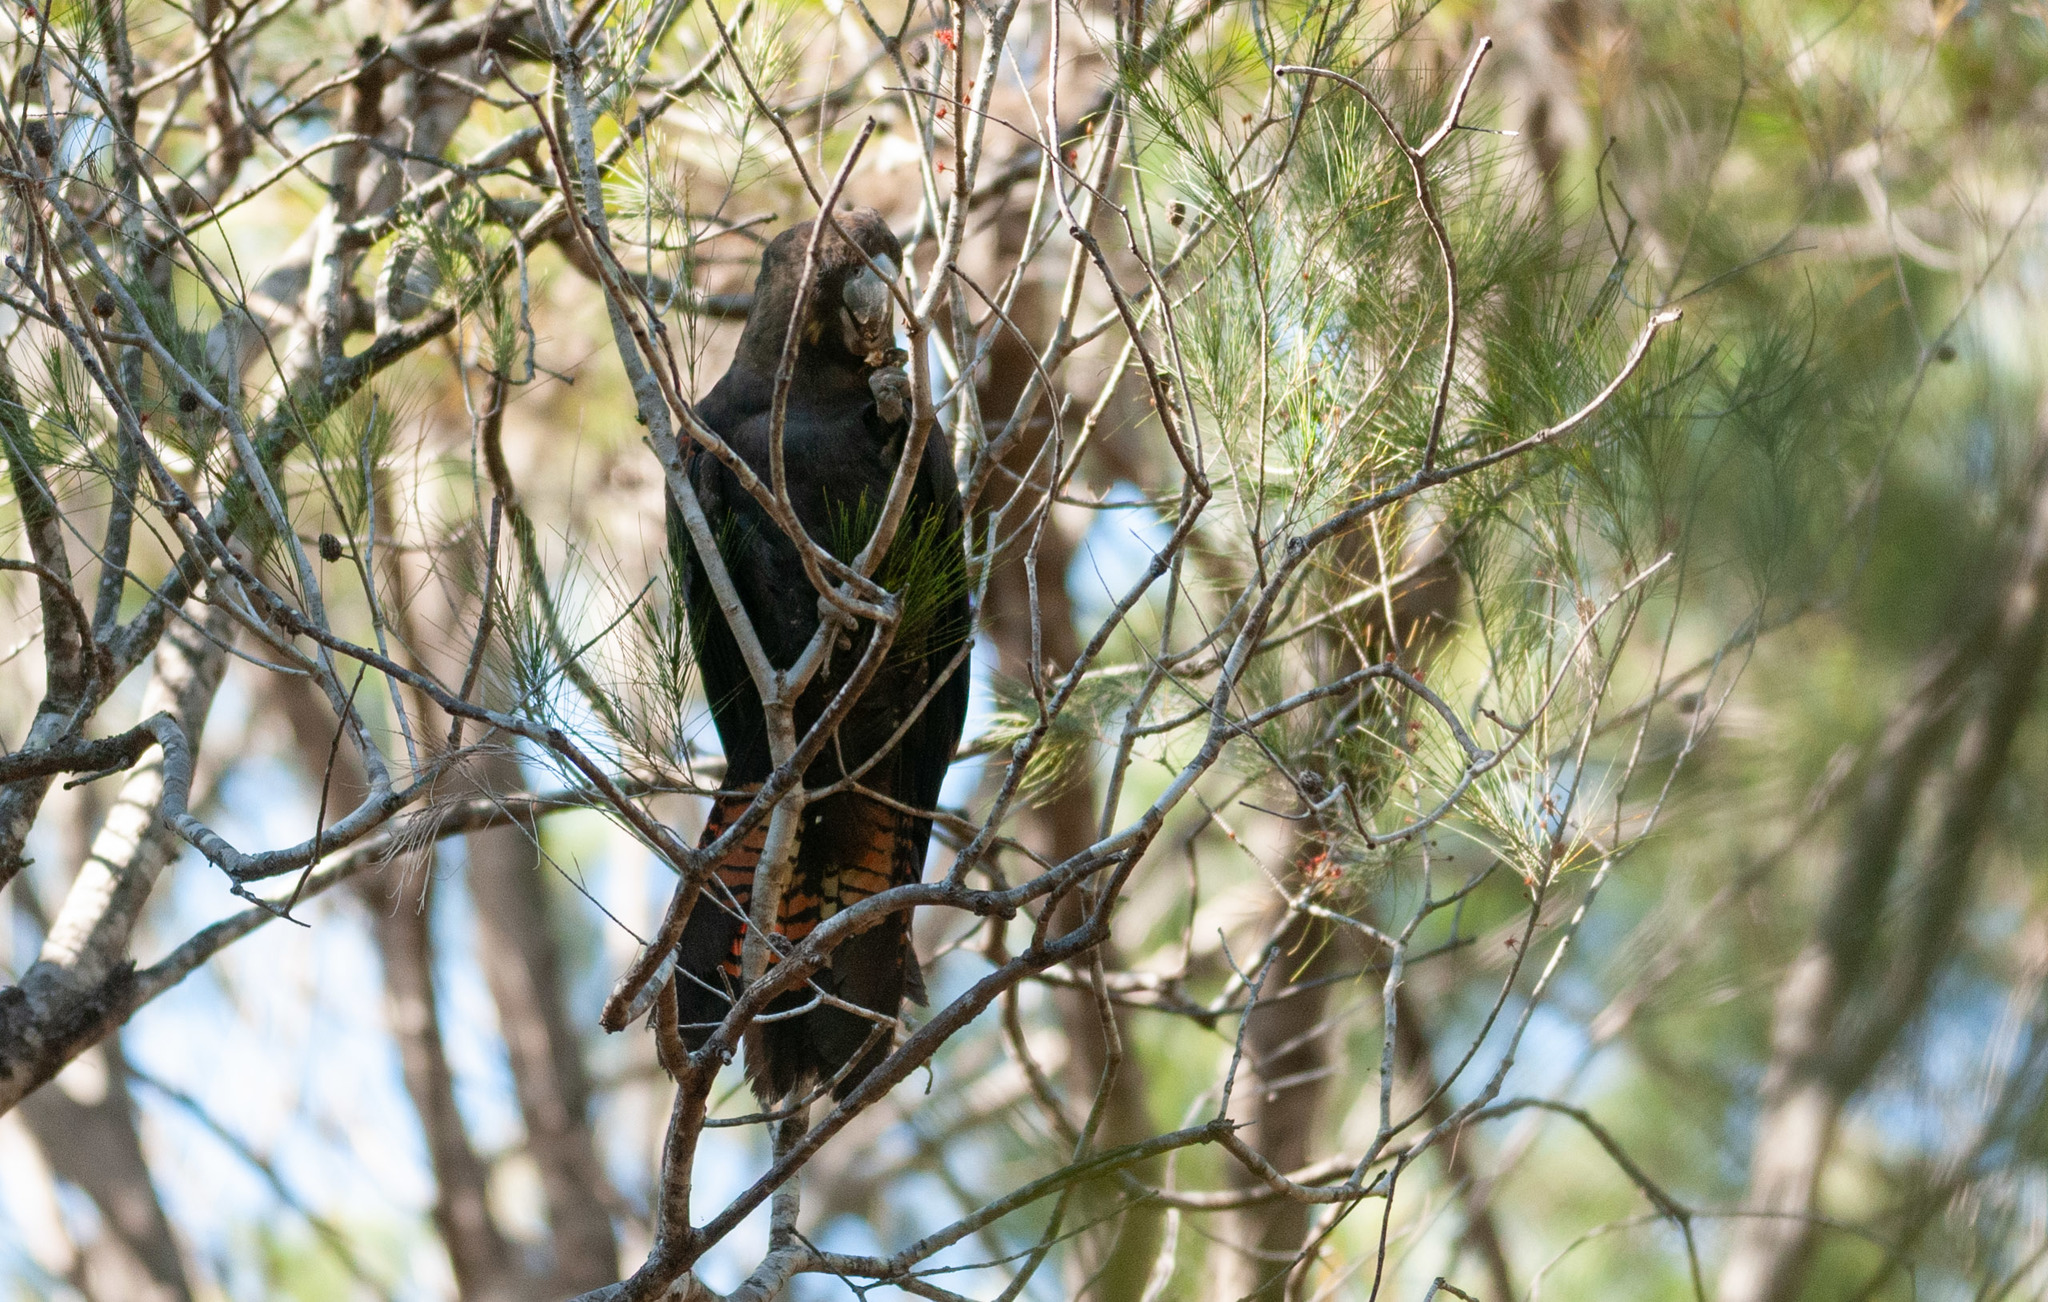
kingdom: Animalia
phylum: Chordata
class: Aves
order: Psittaciformes
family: Psittacidae
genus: Calyptorhynchus
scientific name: Calyptorhynchus lathami
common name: Glossy black cockatoo
